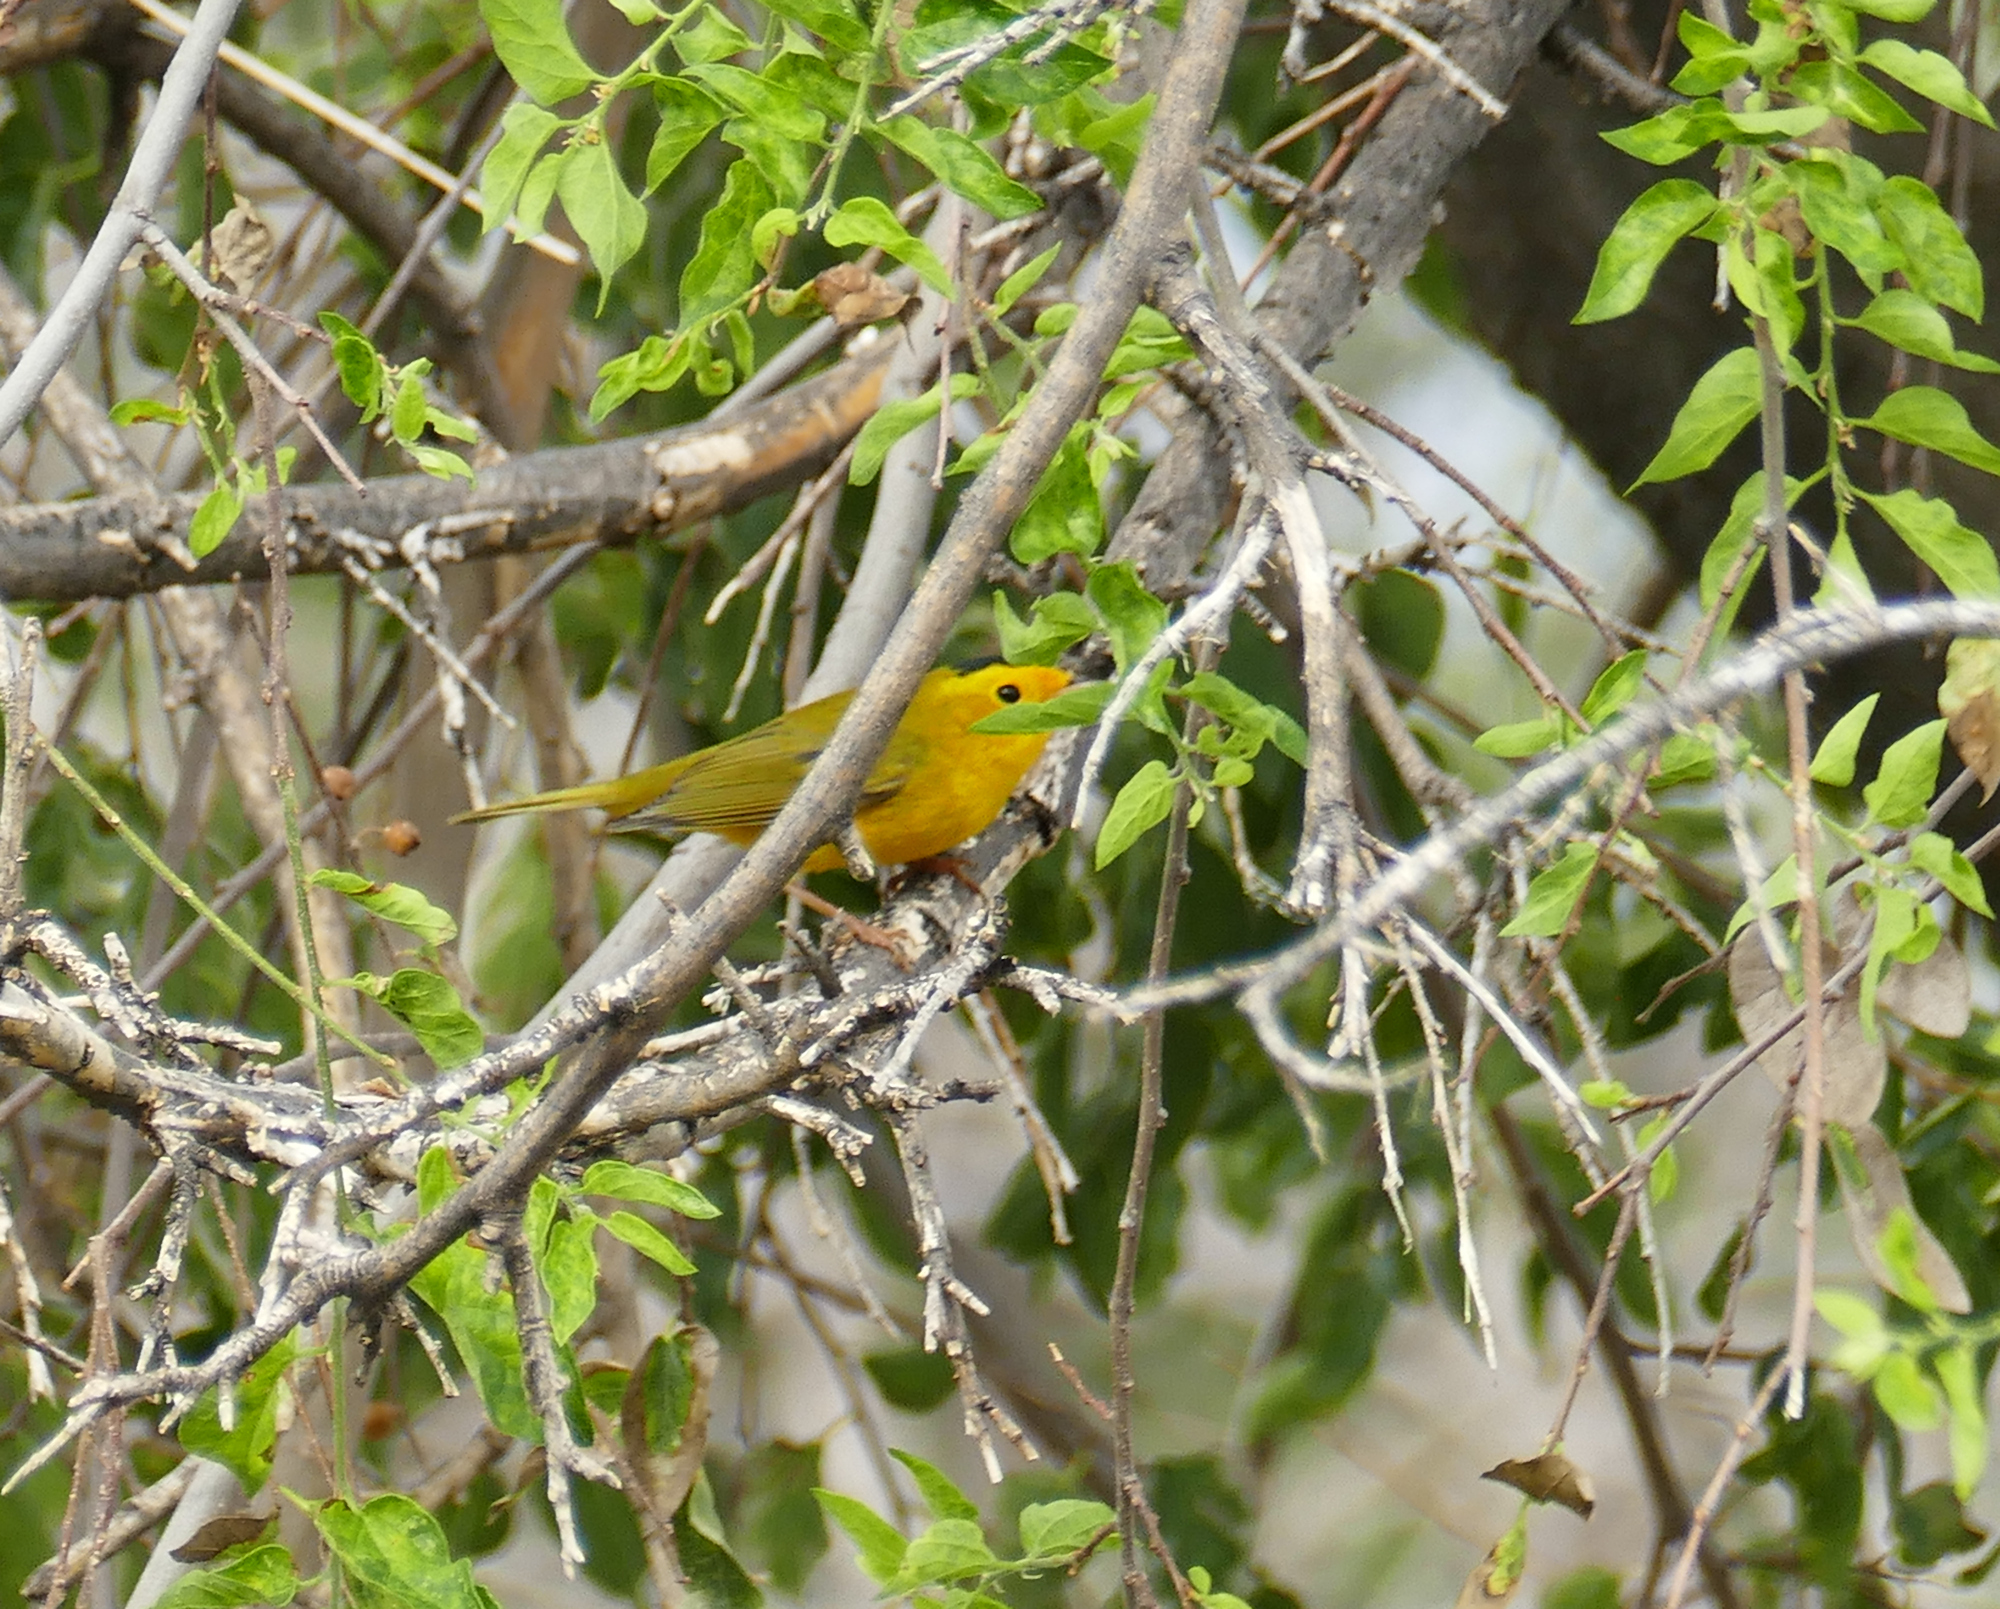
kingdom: Animalia
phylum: Chordata
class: Aves
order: Passeriformes
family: Parulidae
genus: Cardellina
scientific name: Cardellina pusilla
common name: Wilson's warbler
